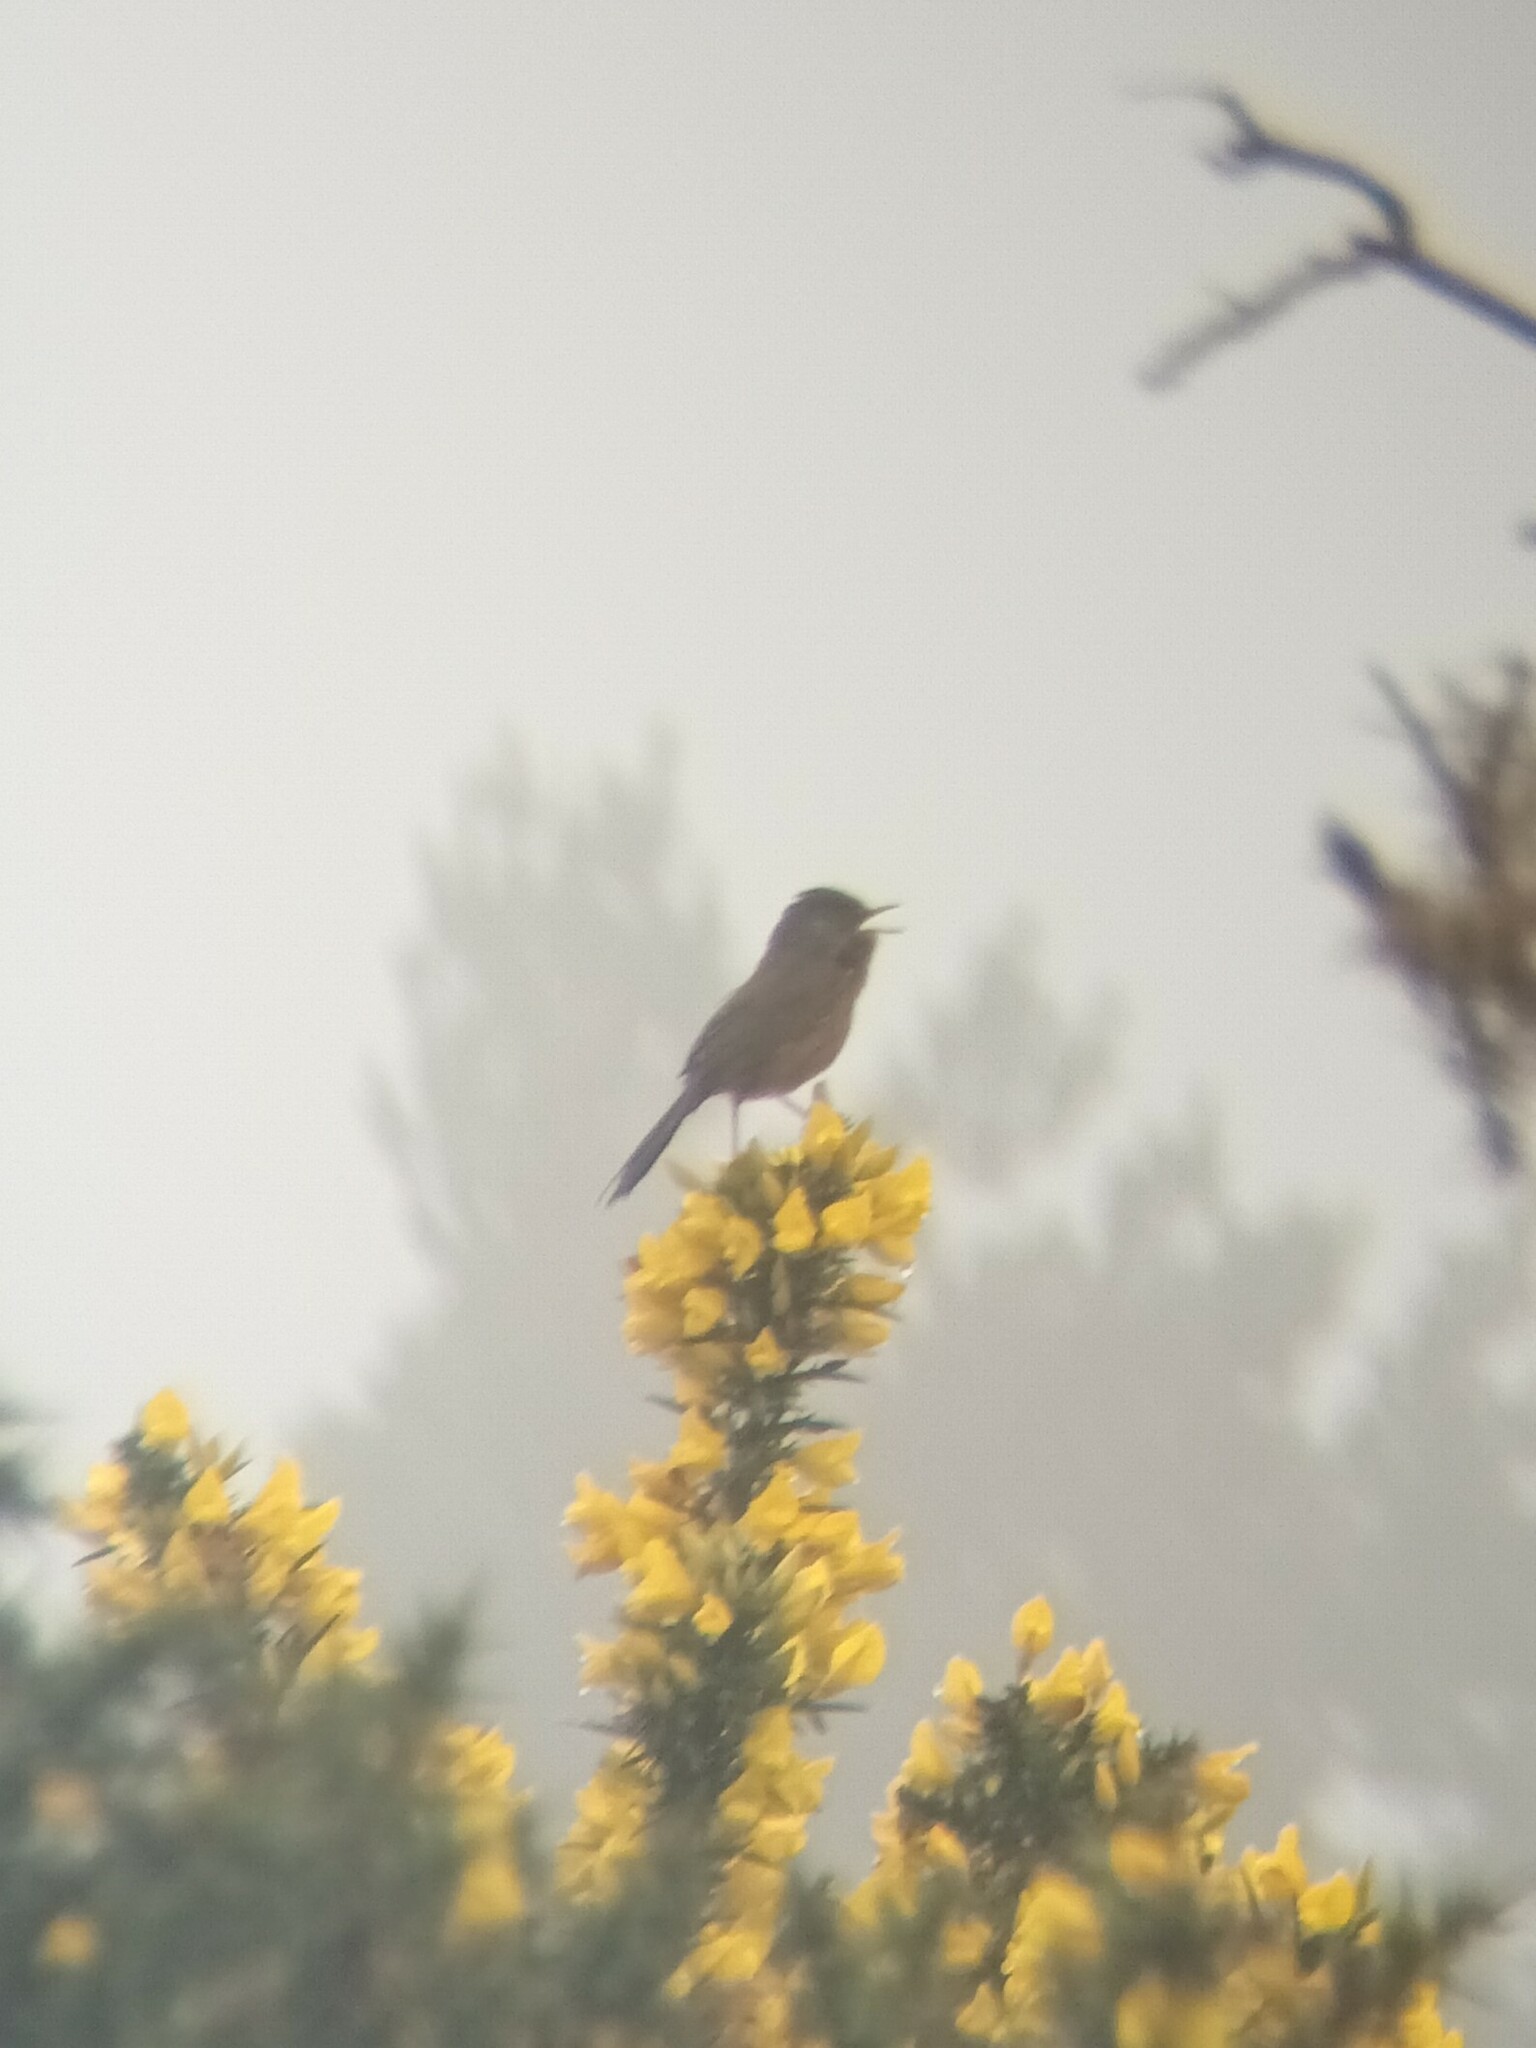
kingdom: Animalia
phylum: Chordata
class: Aves
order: Passeriformes
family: Sylviidae
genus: Sylvia
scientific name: Sylvia undata
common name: Dartford warbler
